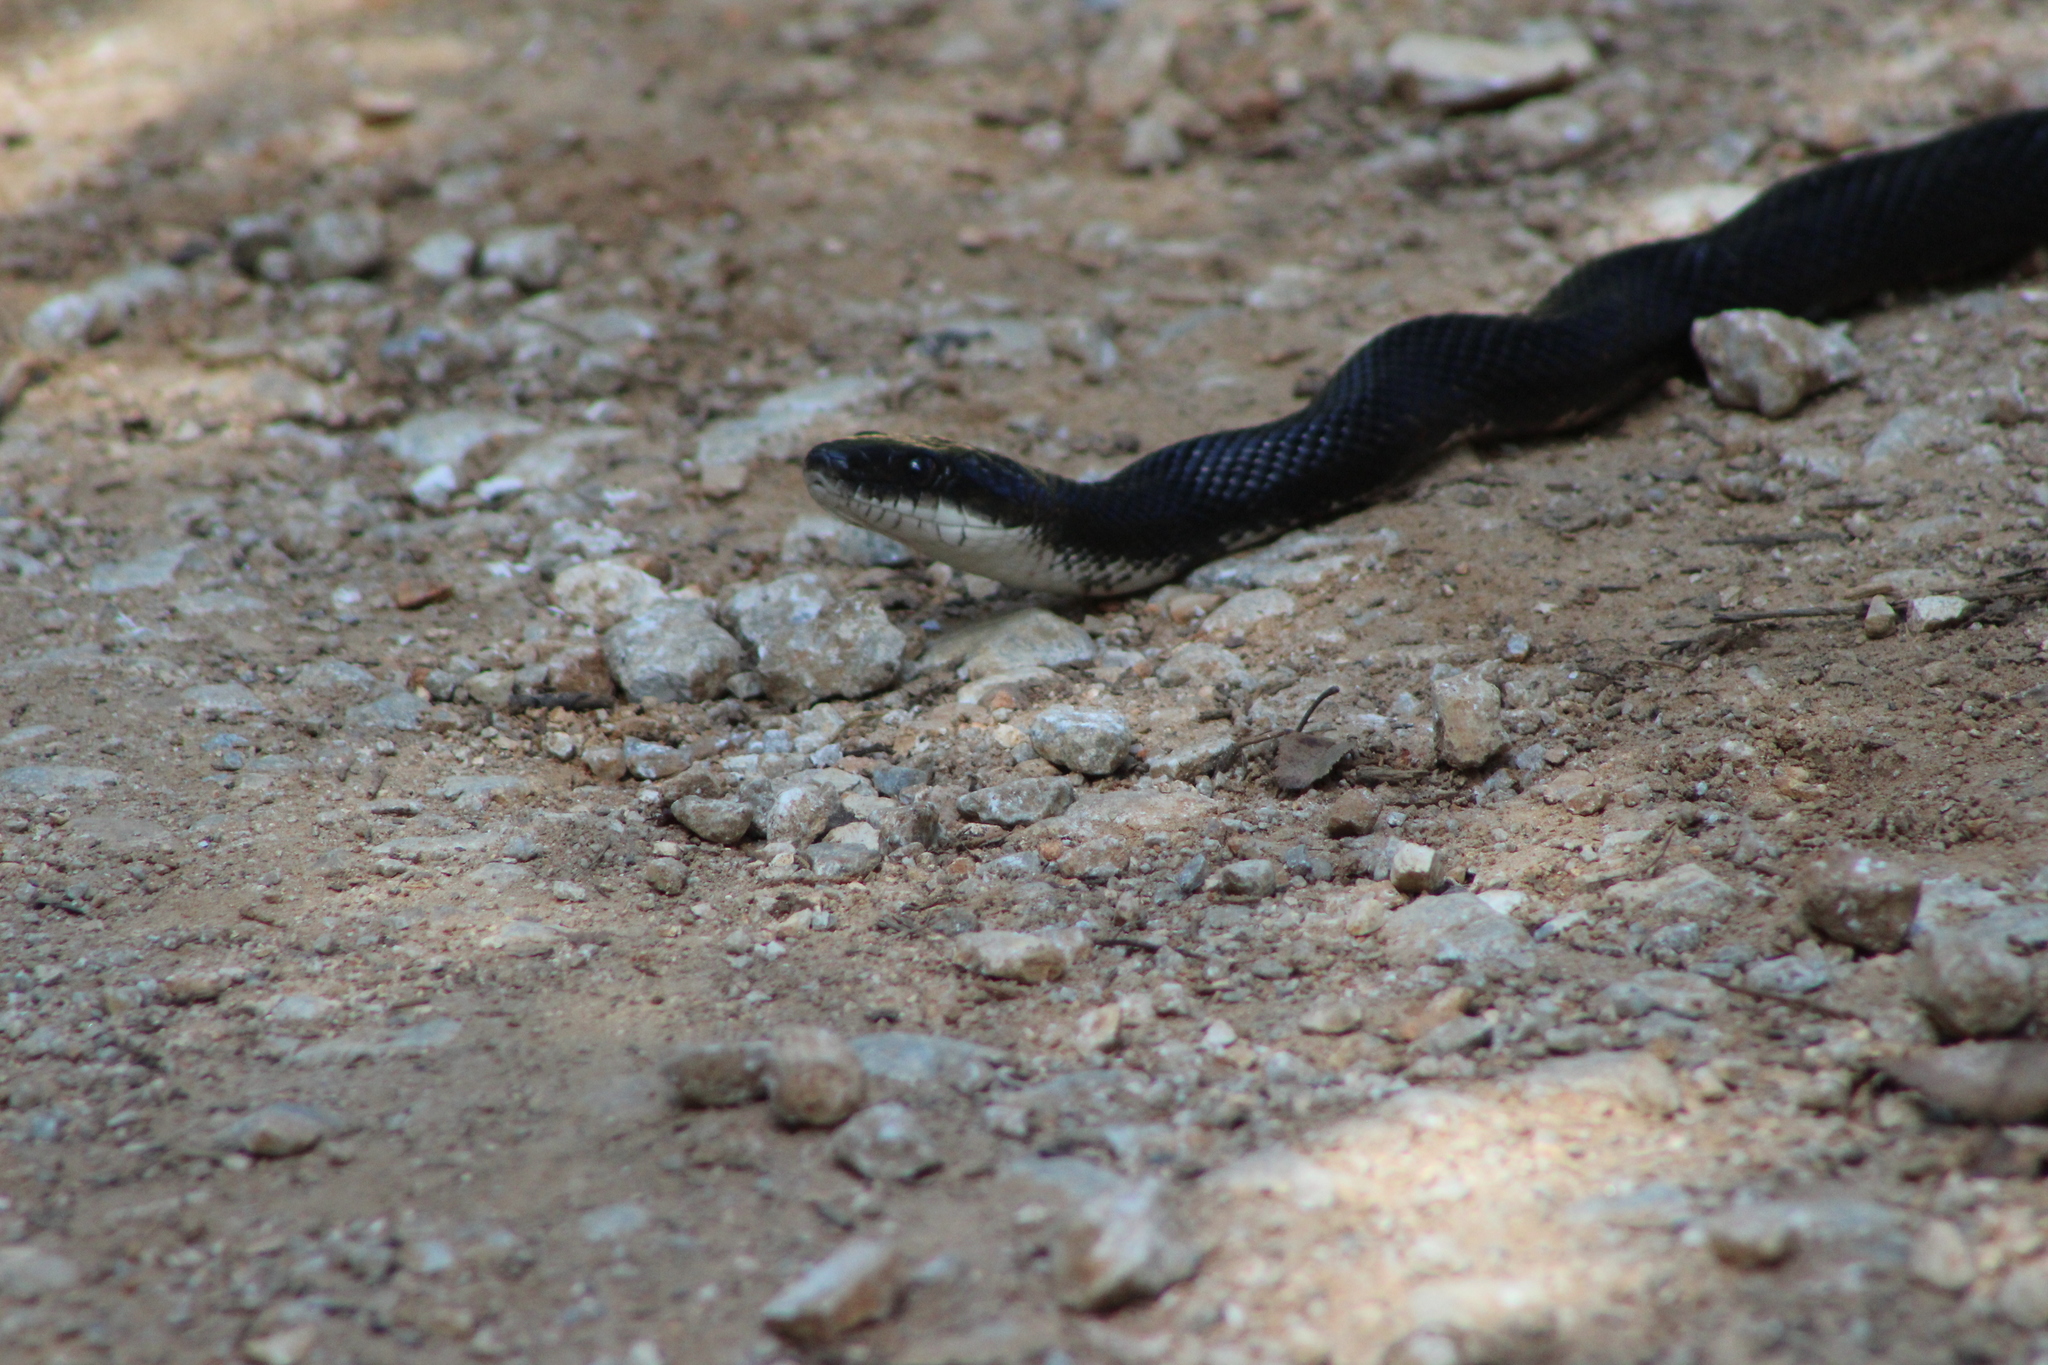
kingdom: Animalia
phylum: Chordata
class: Squamata
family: Colubridae
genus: Pantherophis
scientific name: Pantherophis obsoletus
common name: Black rat snake
